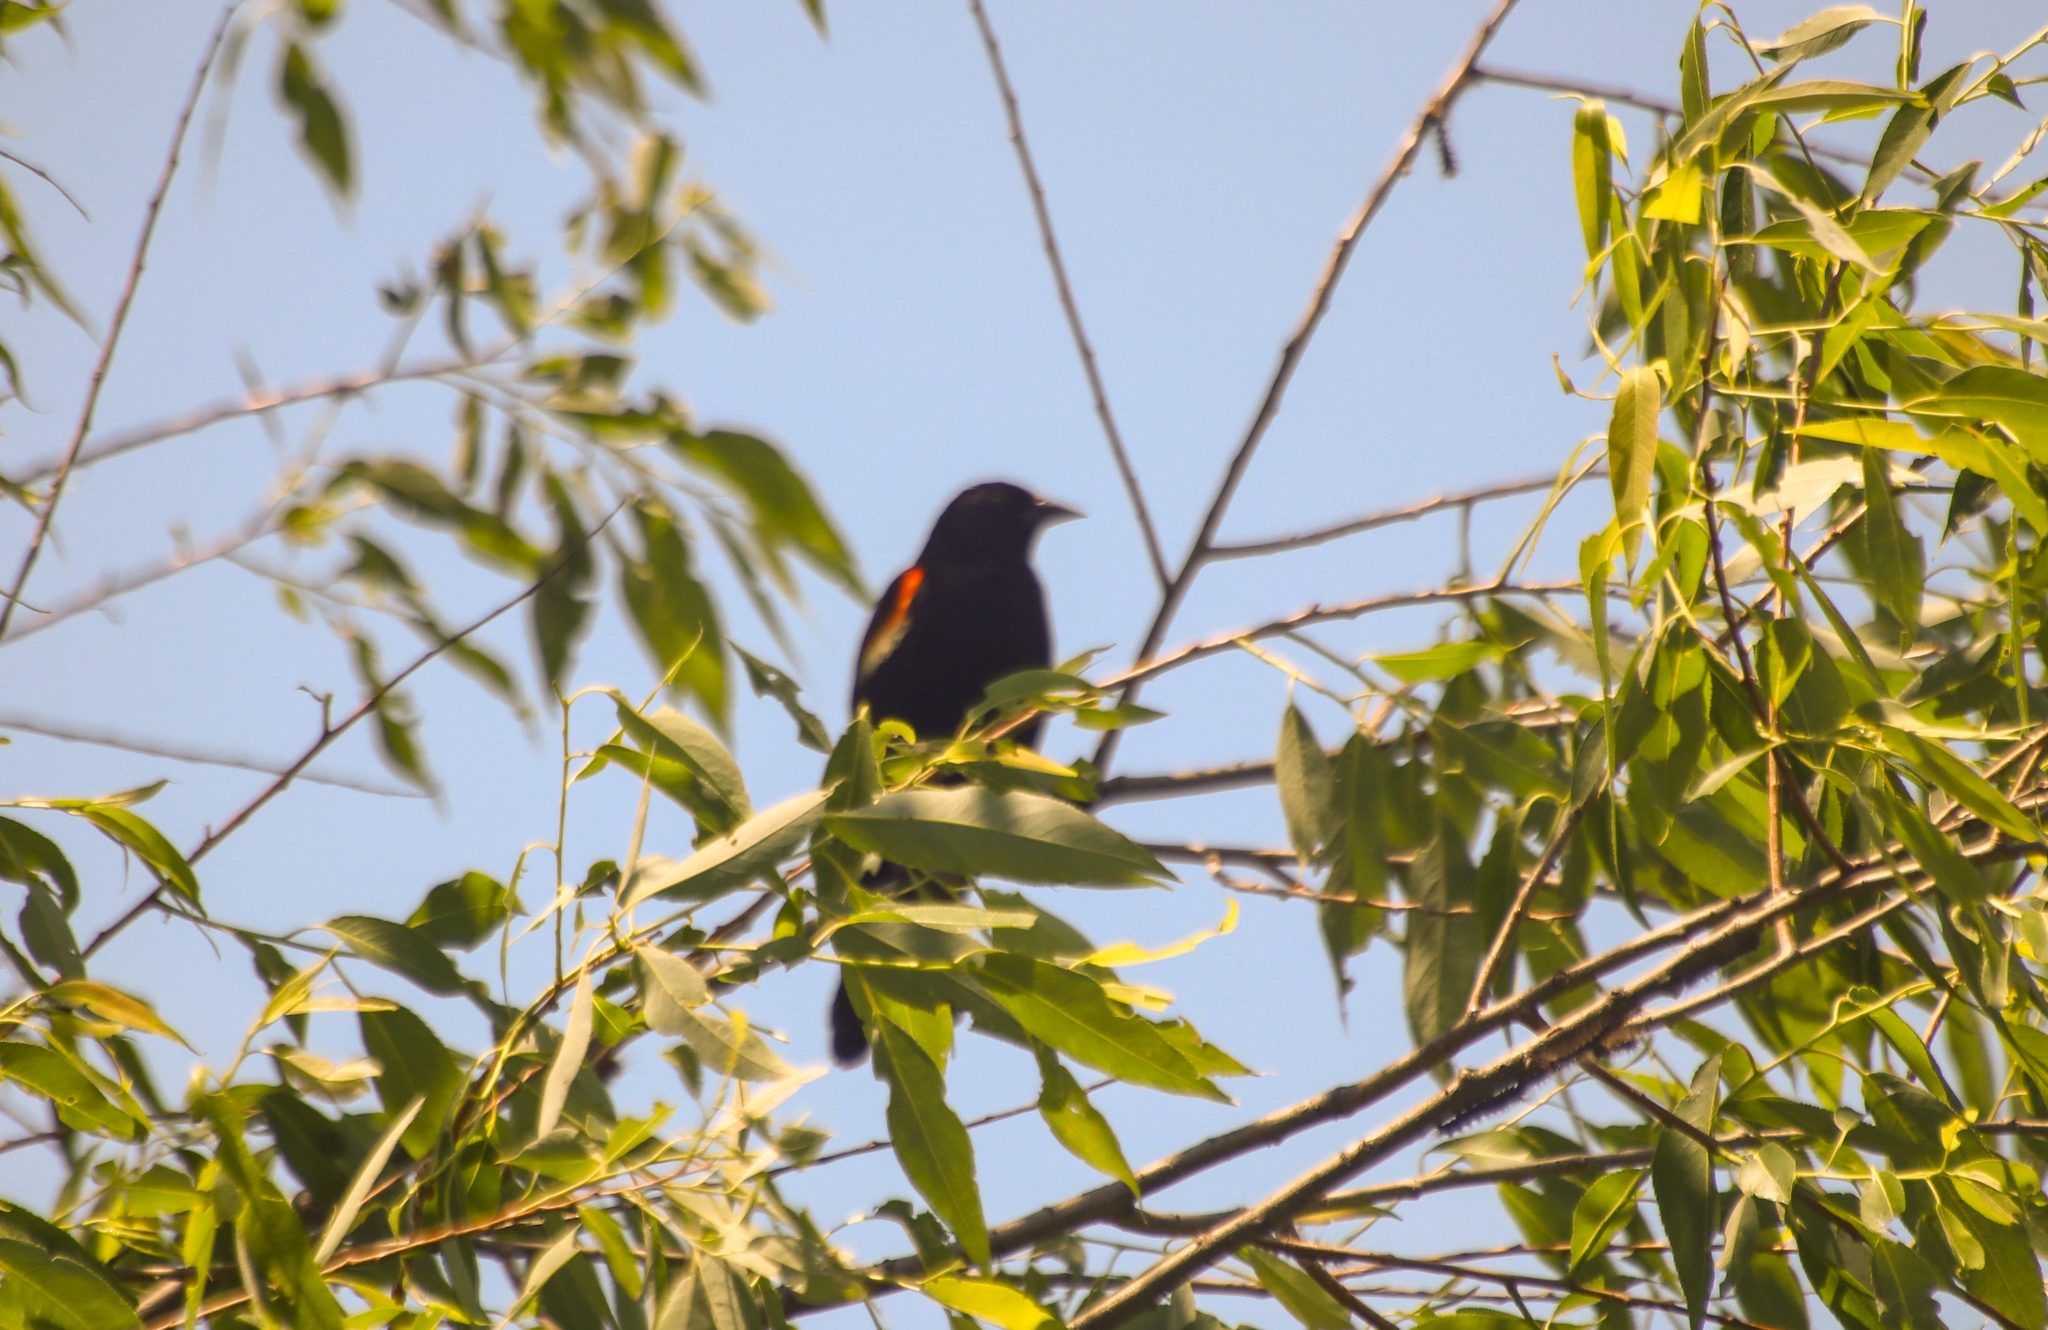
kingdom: Animalia
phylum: Chordata
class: Aves
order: Passeriformes
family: Icteridae
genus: Agelaius
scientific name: Agelaius phoeniceus
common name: Red-winged blackbird
